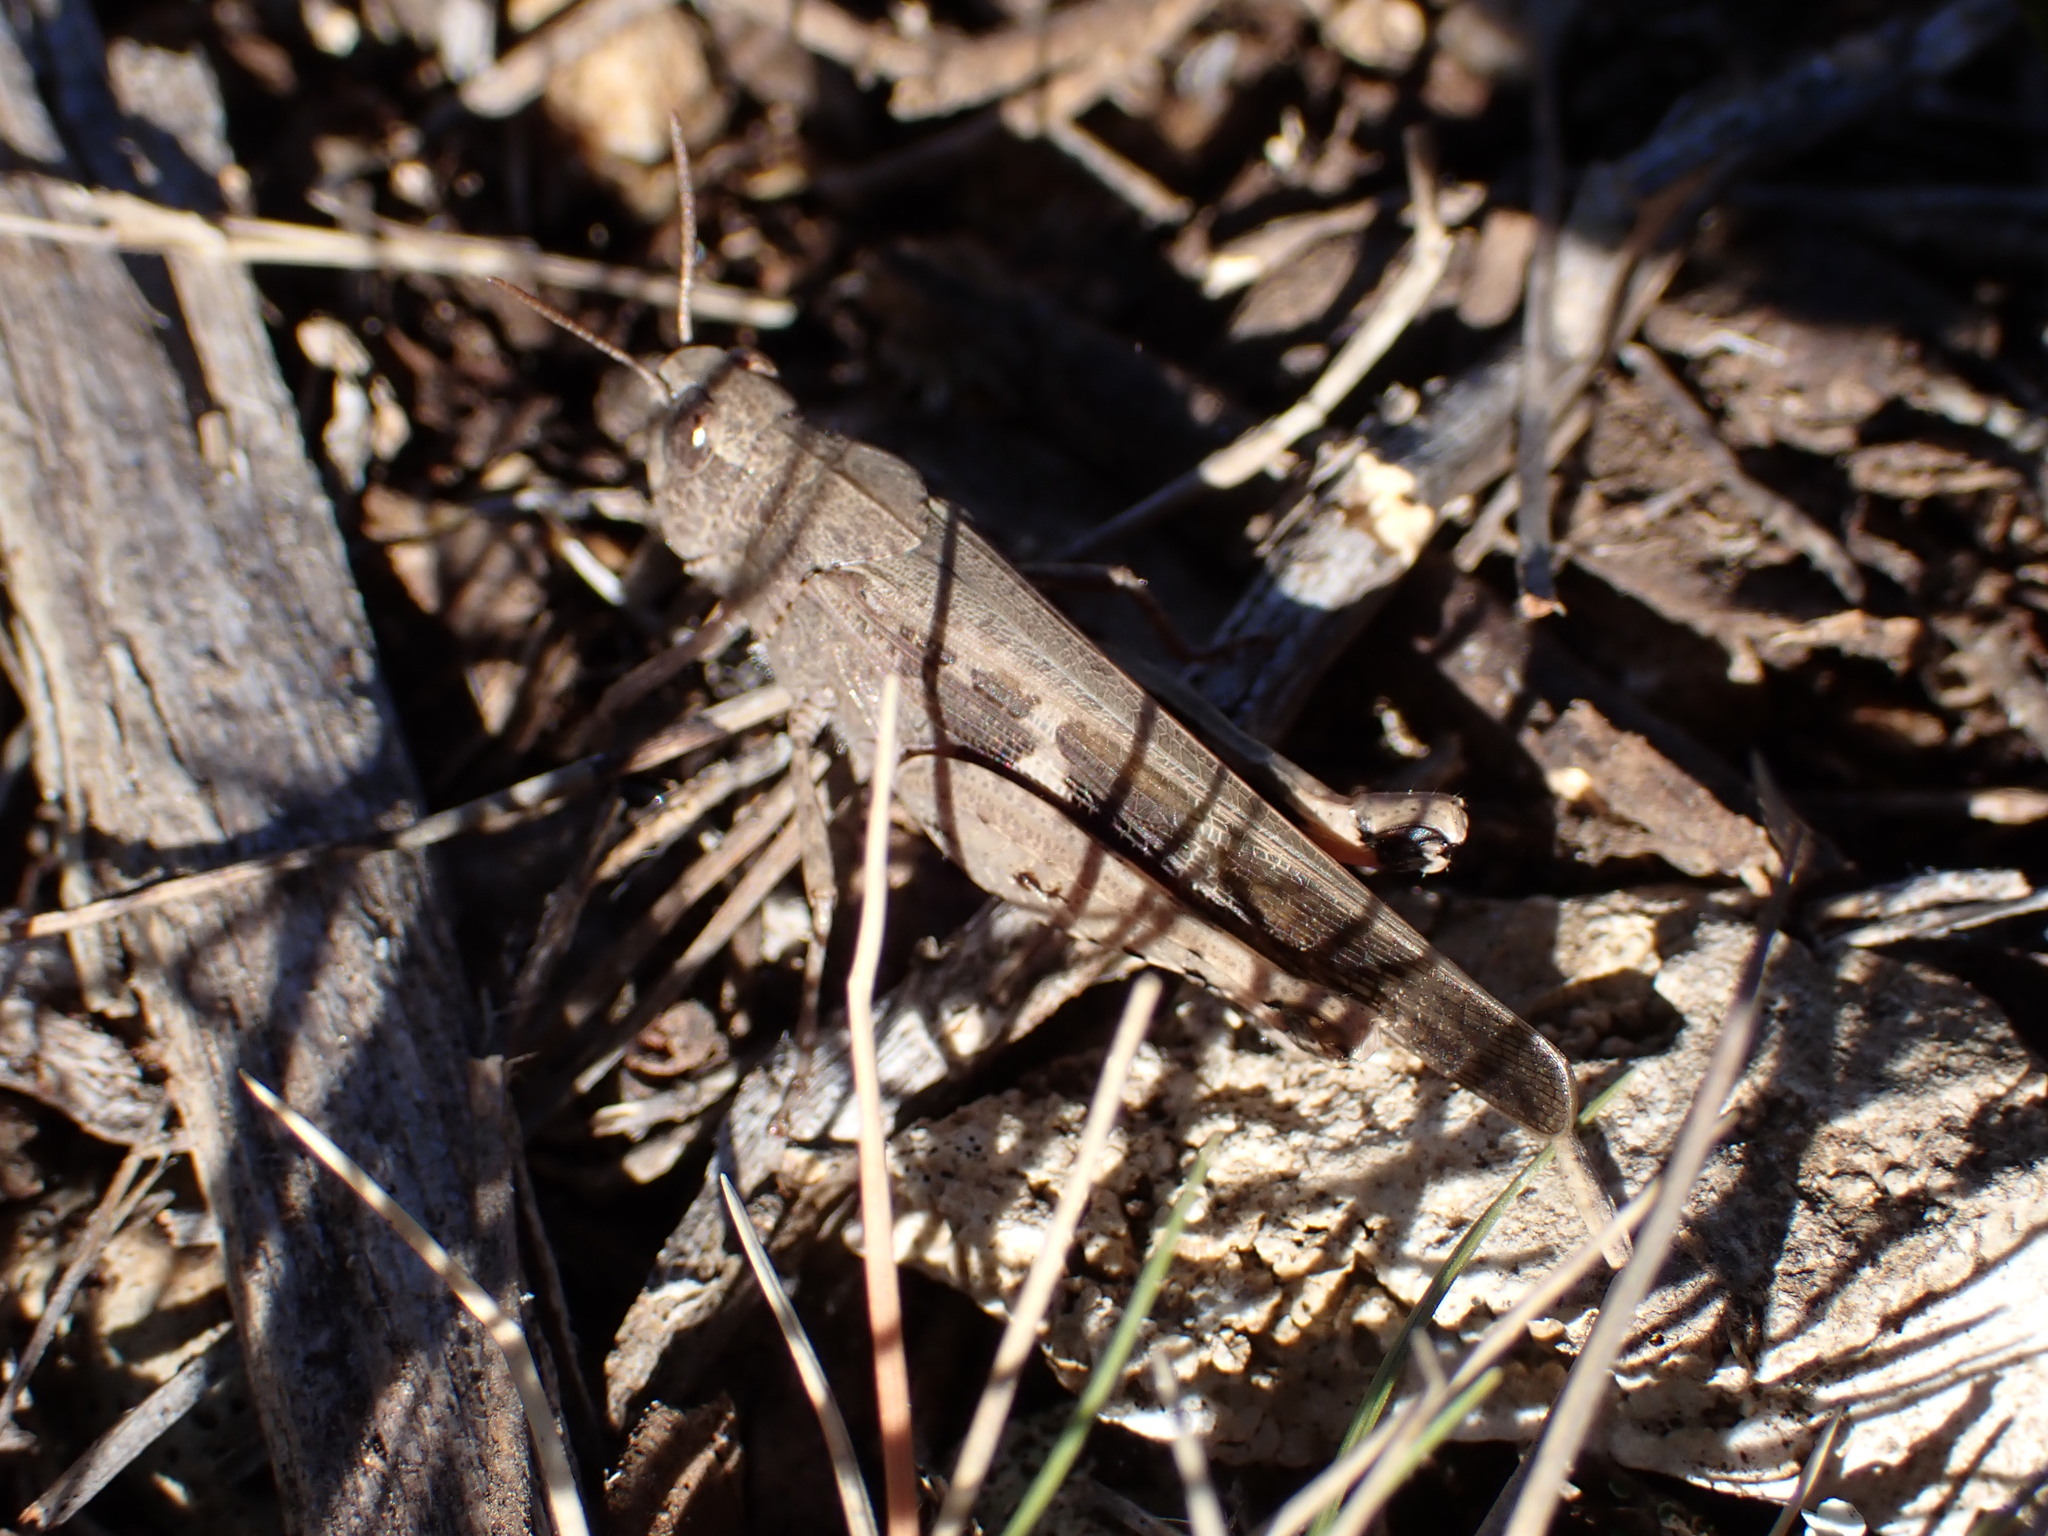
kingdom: Animalia
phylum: Arthropoda
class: Insecta
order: Orthoptera
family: Acrididae
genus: Aiolopus
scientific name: Aiolopus strepens
